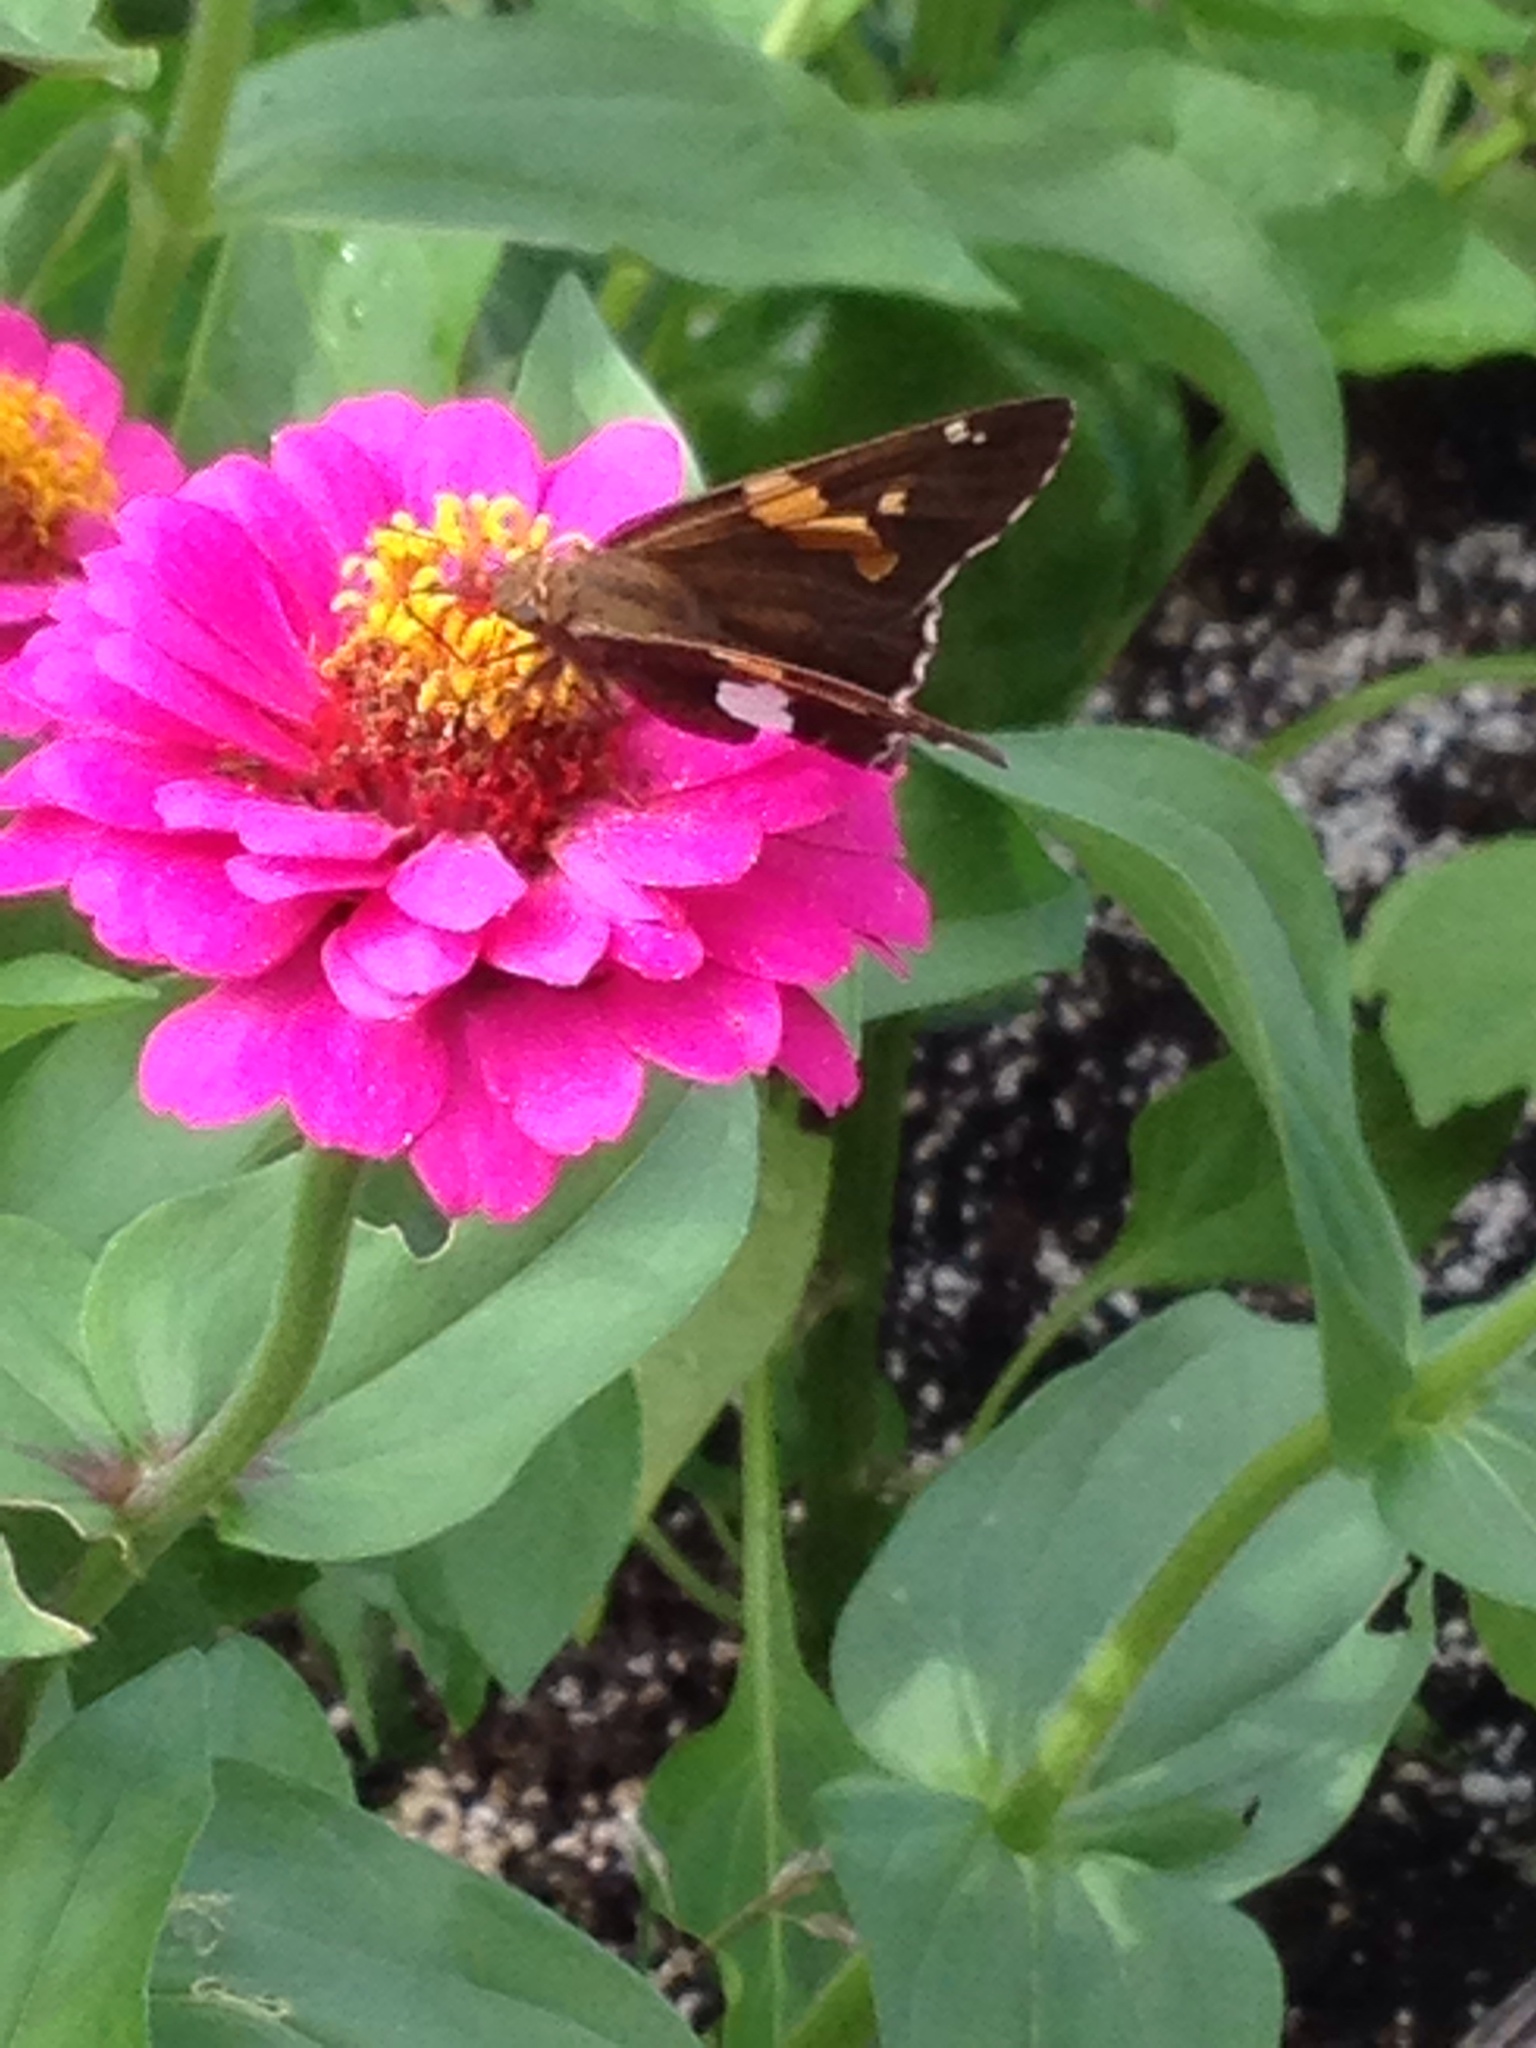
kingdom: Animalia
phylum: Arthropoda
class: Insecta
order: Lepidoptera
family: Hesperiidae
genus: Epargyreus
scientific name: Epargyreus clarus
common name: Silver-spotted skipper
